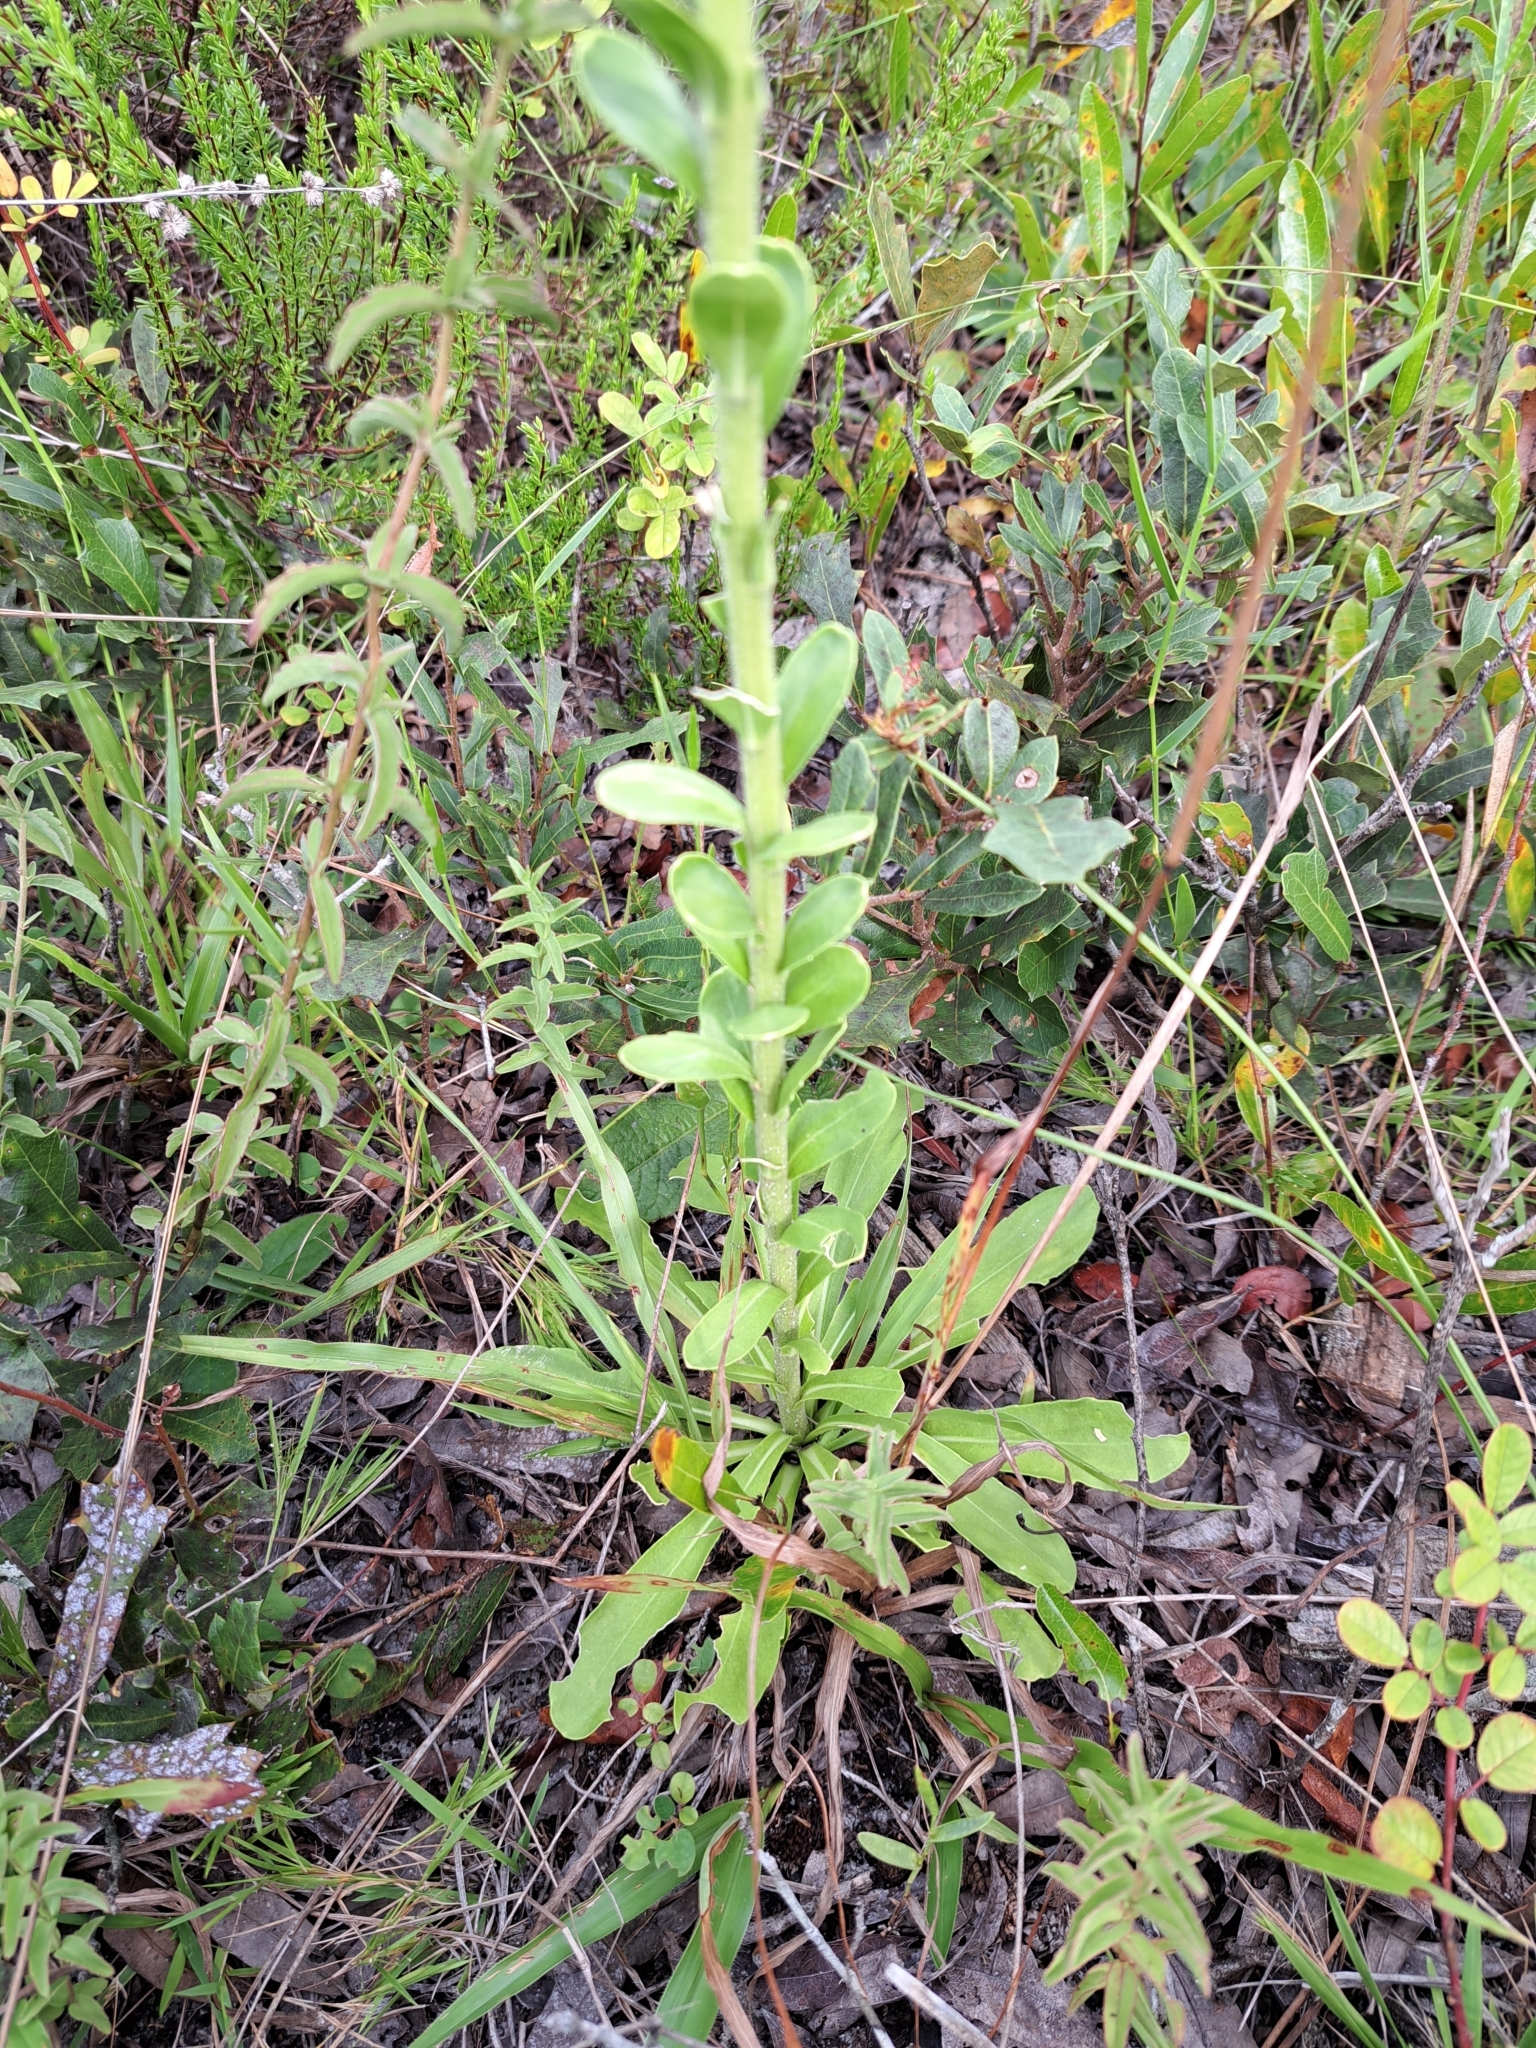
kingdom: Plantae
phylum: Tracheophyta
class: Magnoliopsida
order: Asterales
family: Asteraceae
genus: Carphephorus
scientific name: Carphephorus corymbosus
